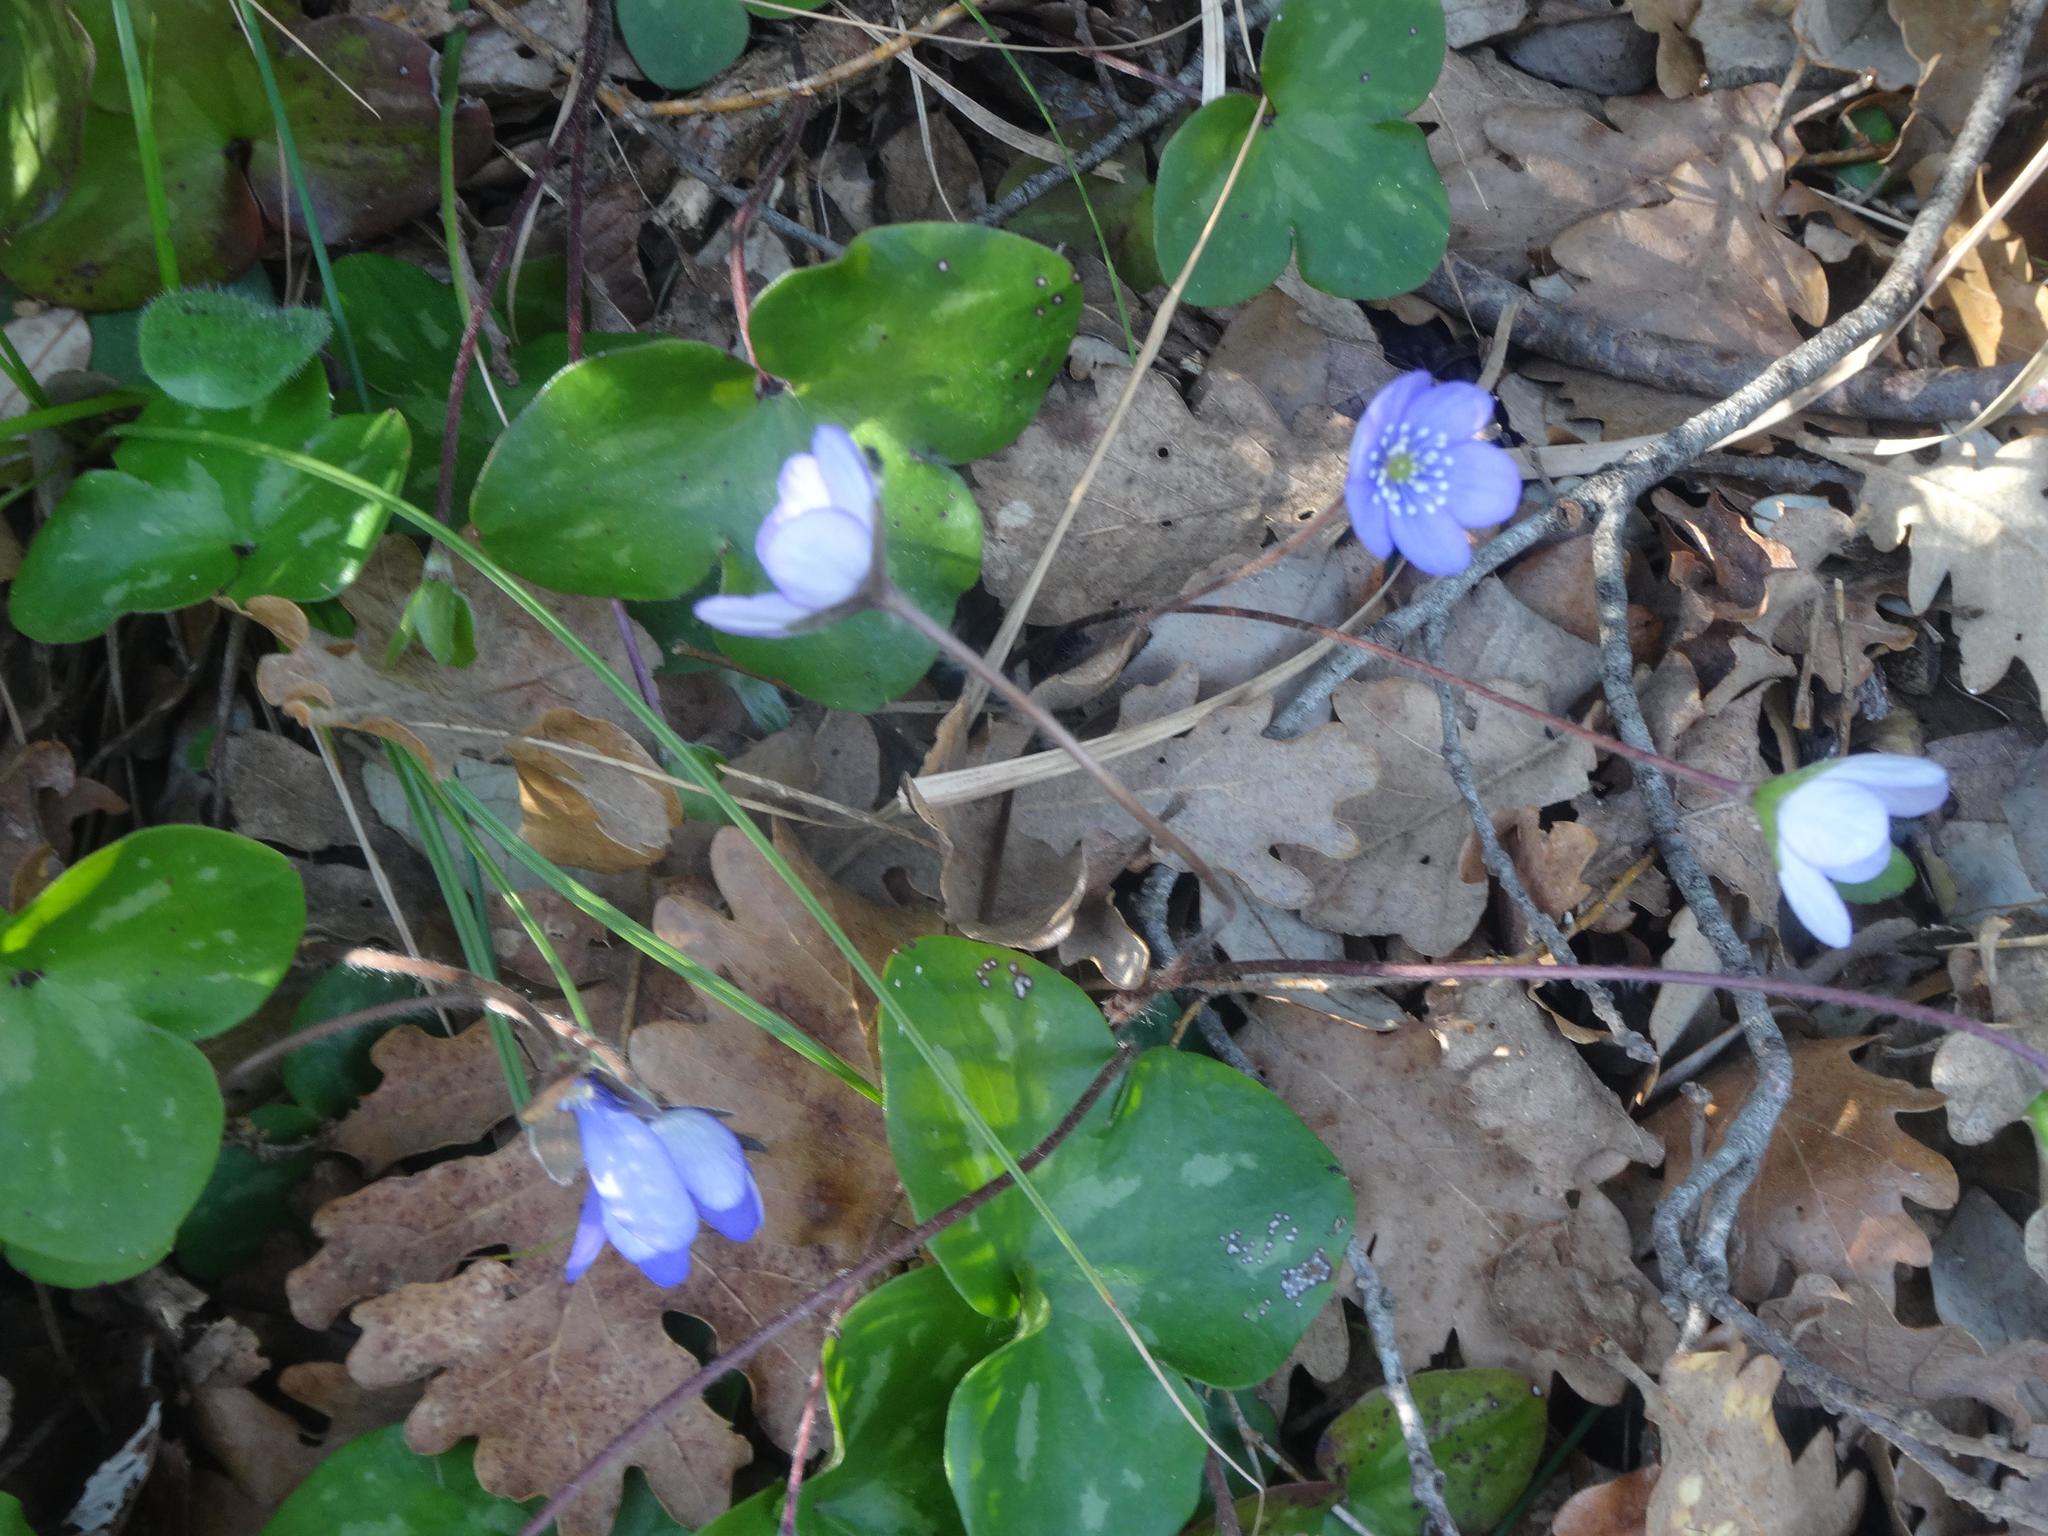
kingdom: Plantae
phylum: Tracheophyta
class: Magnoliopsida
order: Ranunculales
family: Ranunculaceae
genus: Hepatica
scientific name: Hepatica nobilis
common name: Liverleaf
